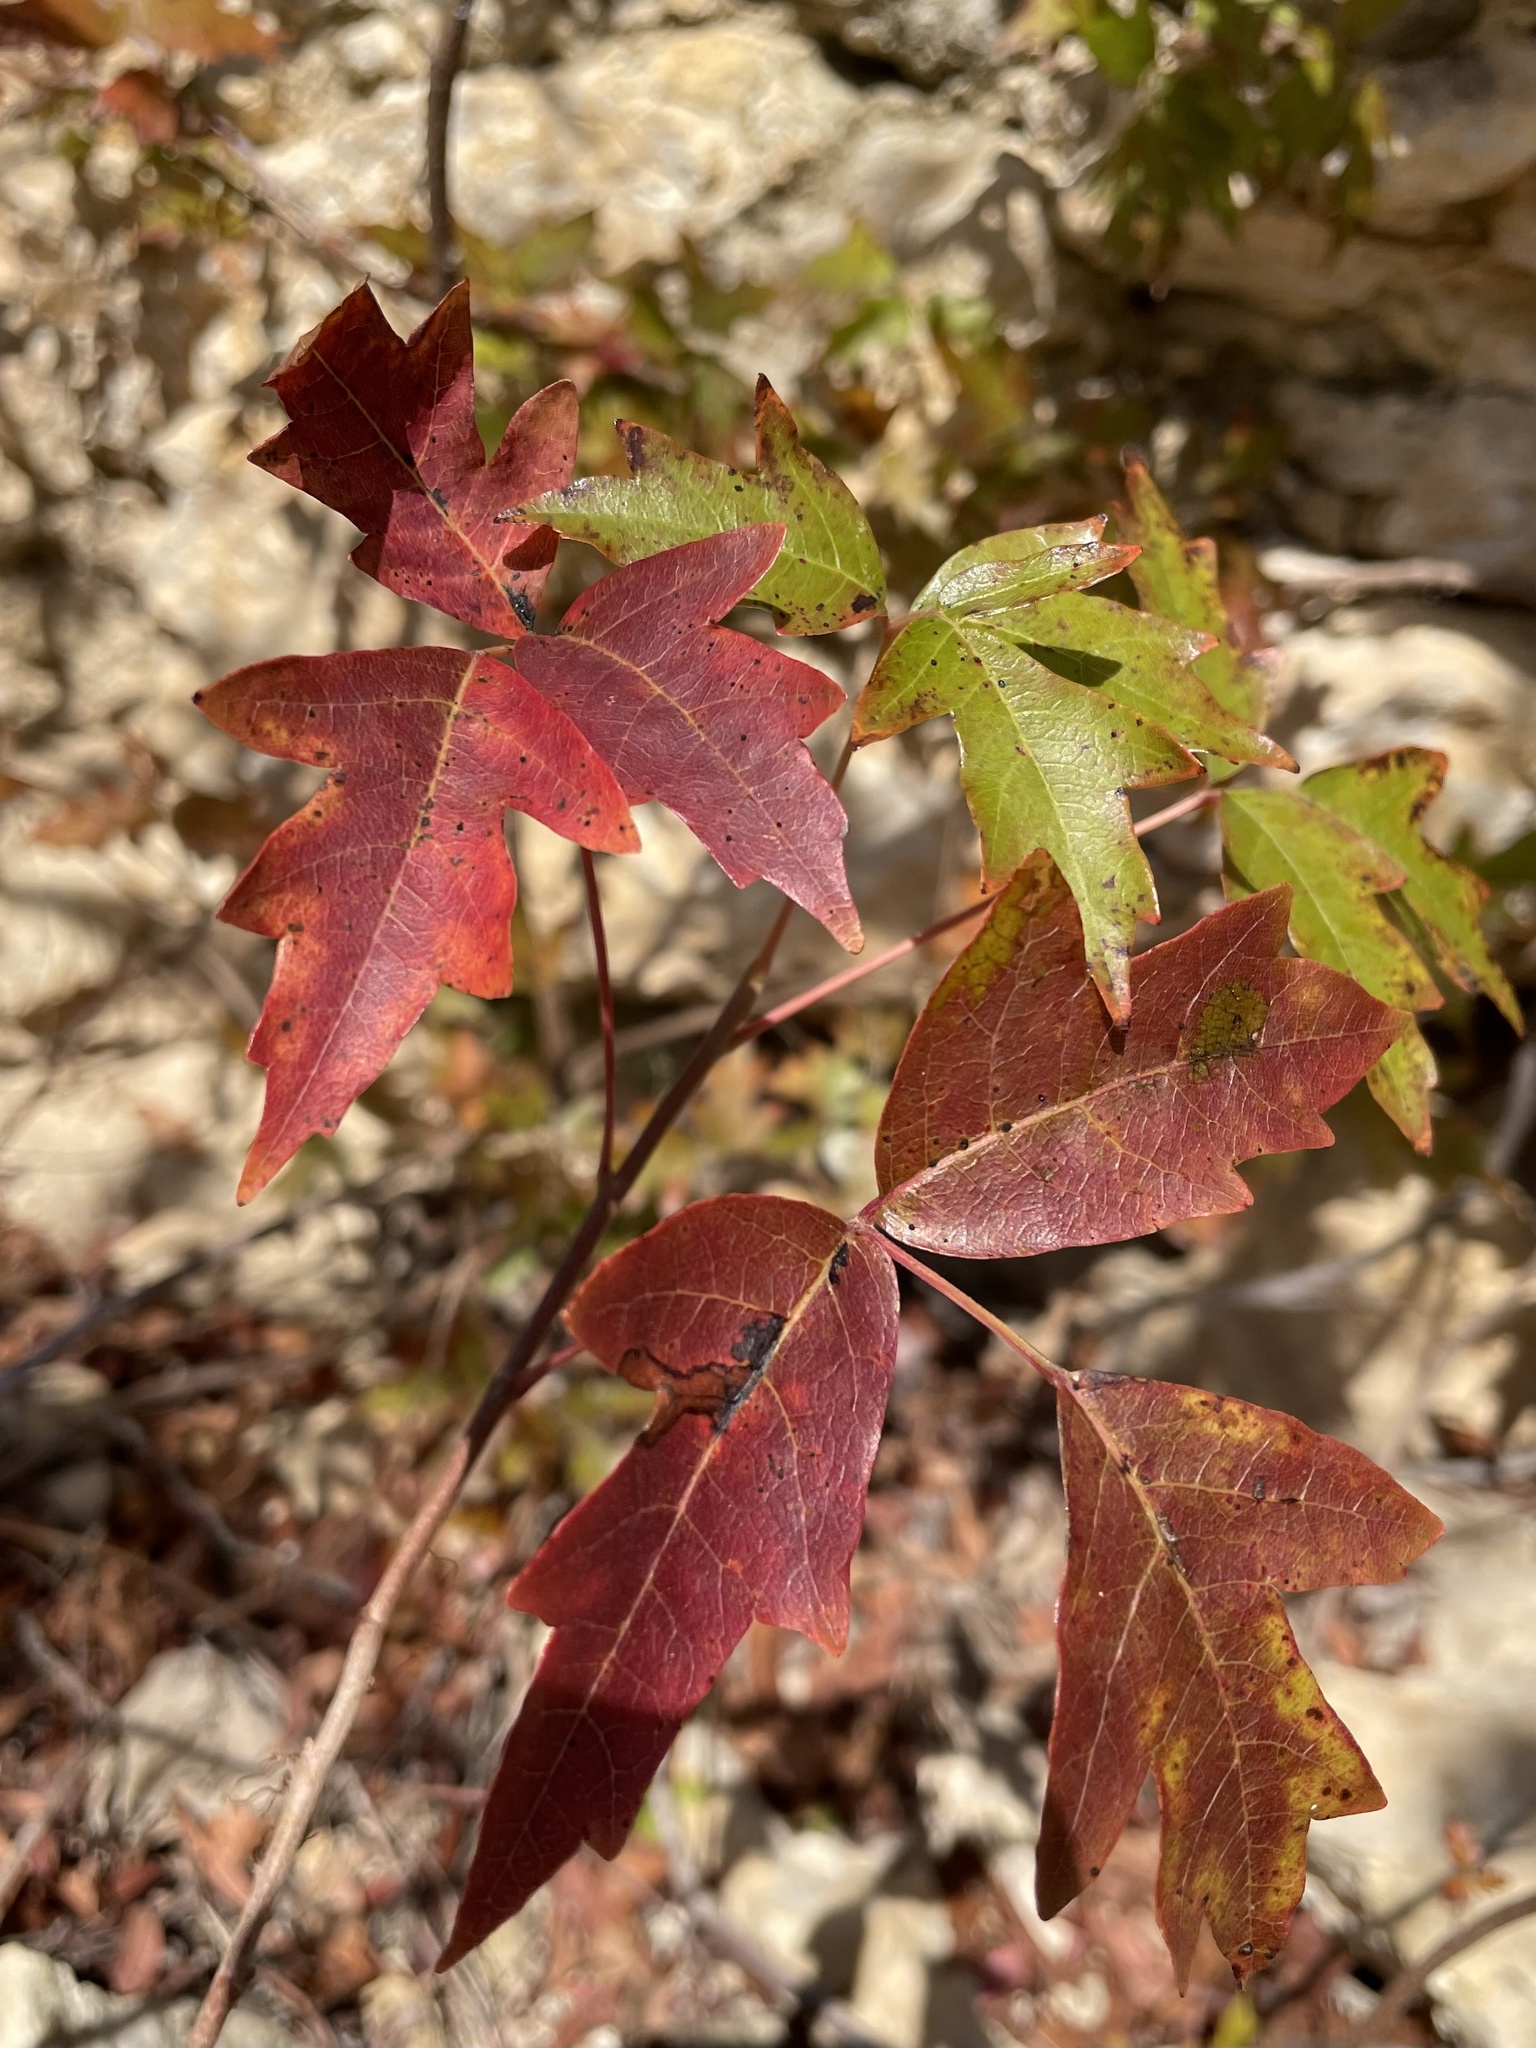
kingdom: Plantae
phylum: Tracheophyta
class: Magnoliopsida
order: Sapindales
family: Anacardiaceae
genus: Toxicodendron
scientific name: Toxicodendron radicans
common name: Poison ivy
